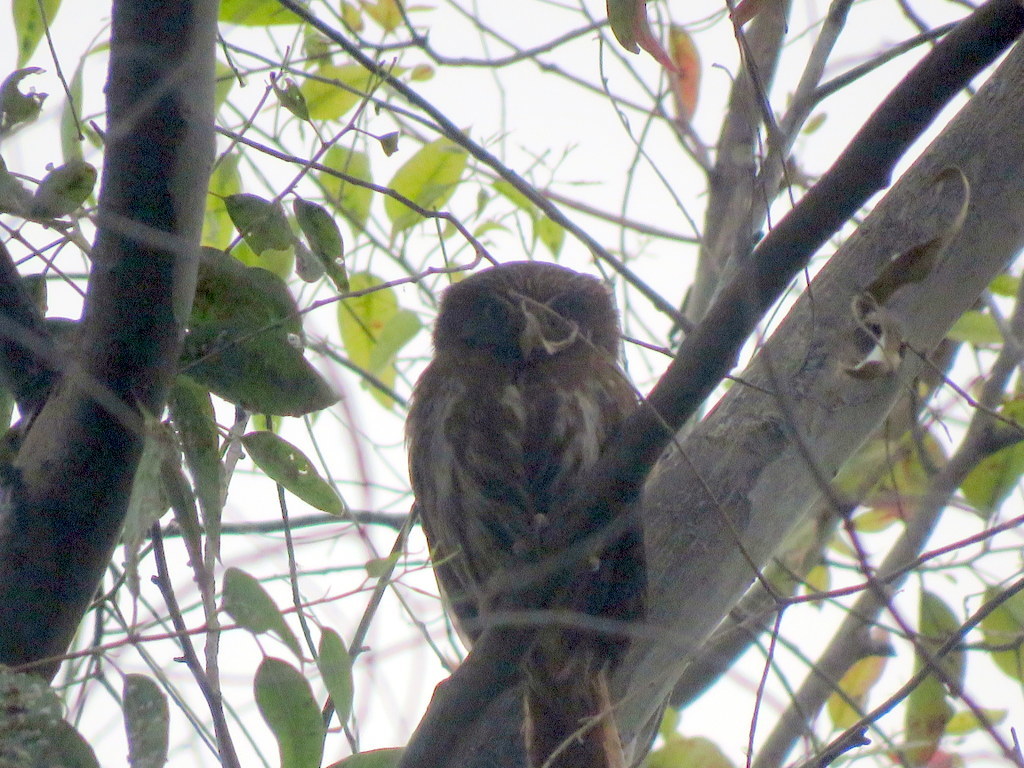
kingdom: Animalia
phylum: Chordata
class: Aves
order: Strigiformes
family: Strigidae
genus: Glaucidium
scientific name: Glaucidium brasilianum
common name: Ferruginous pygmy-owl
